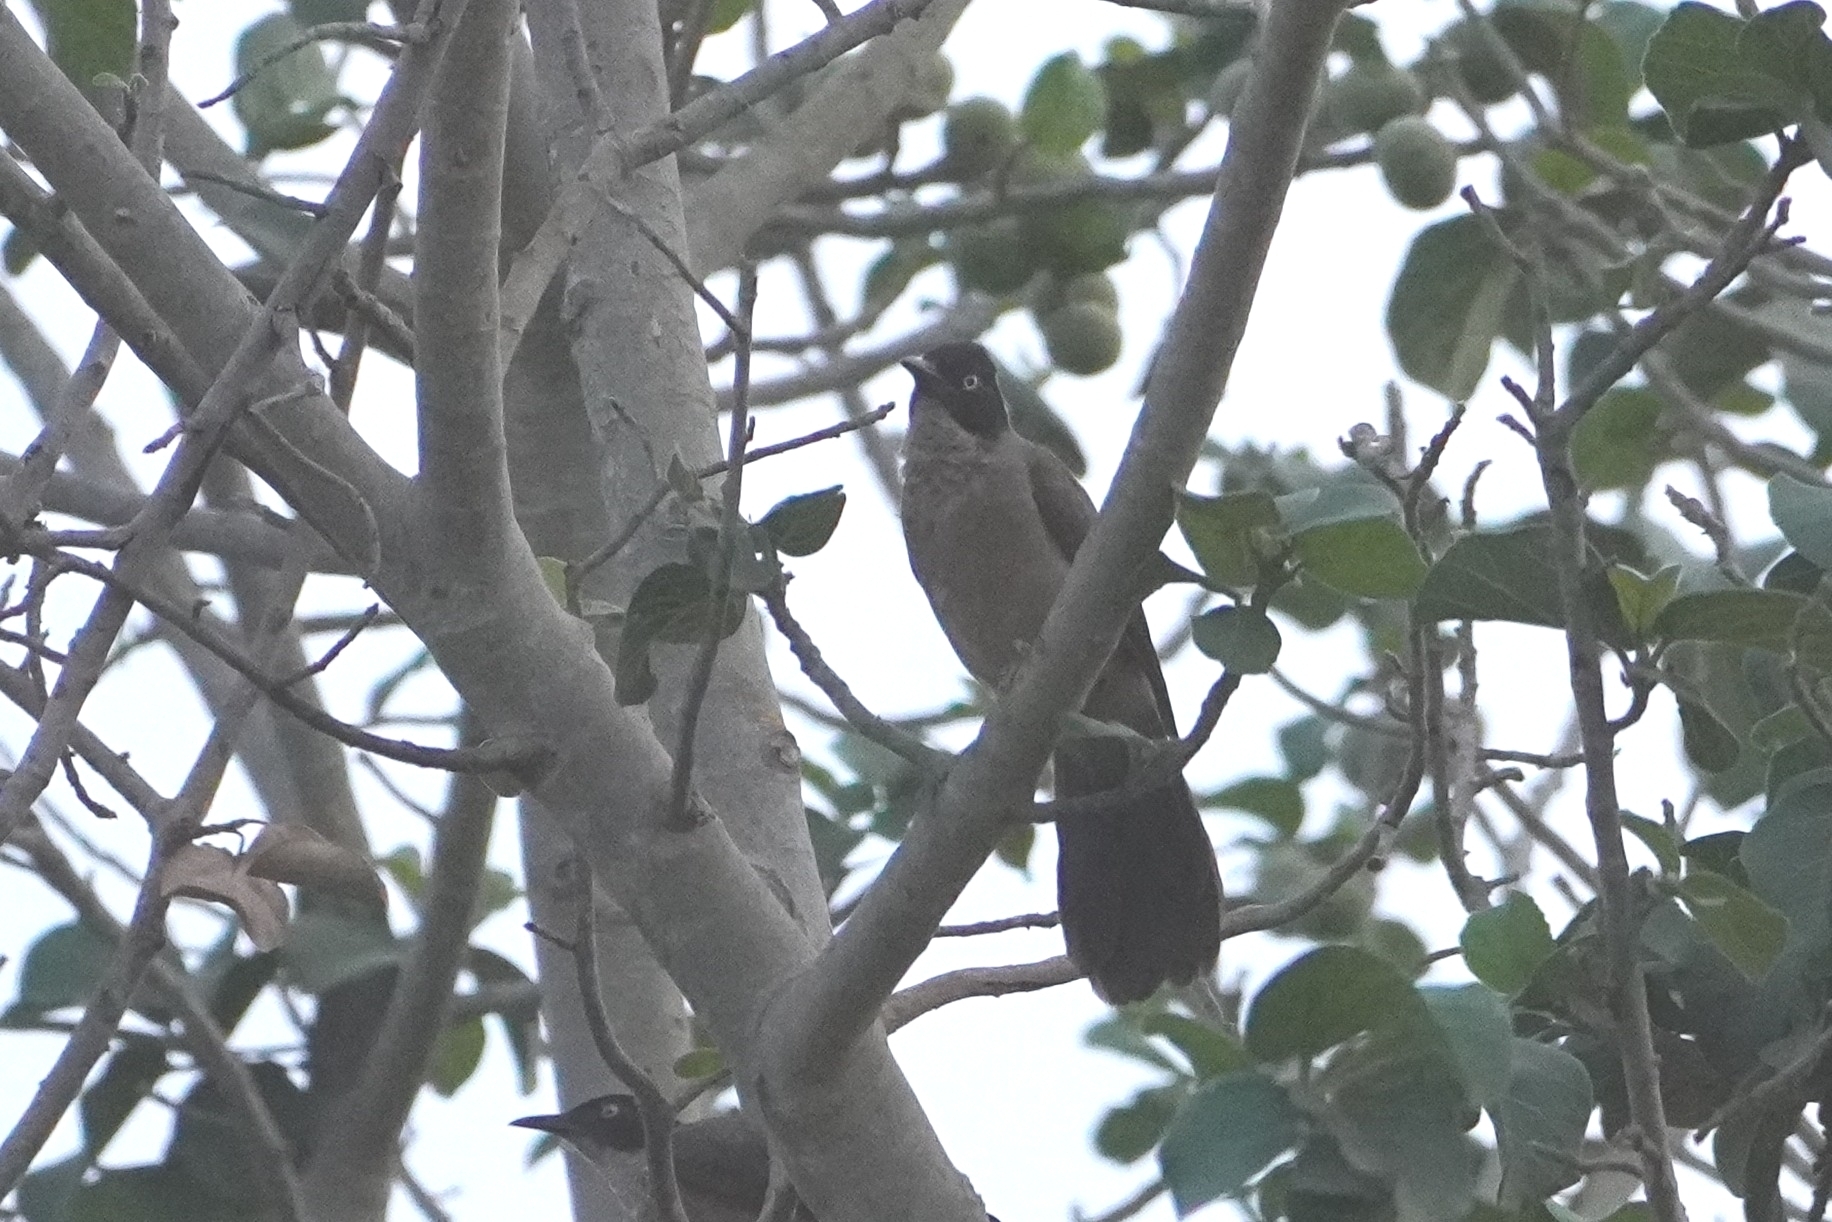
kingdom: Animalia
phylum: Chordata
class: Aves
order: Passeriformes
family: Leiothrichidae
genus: Turdoides
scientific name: Turdoides reinwardtii
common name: Blackcap babbler
